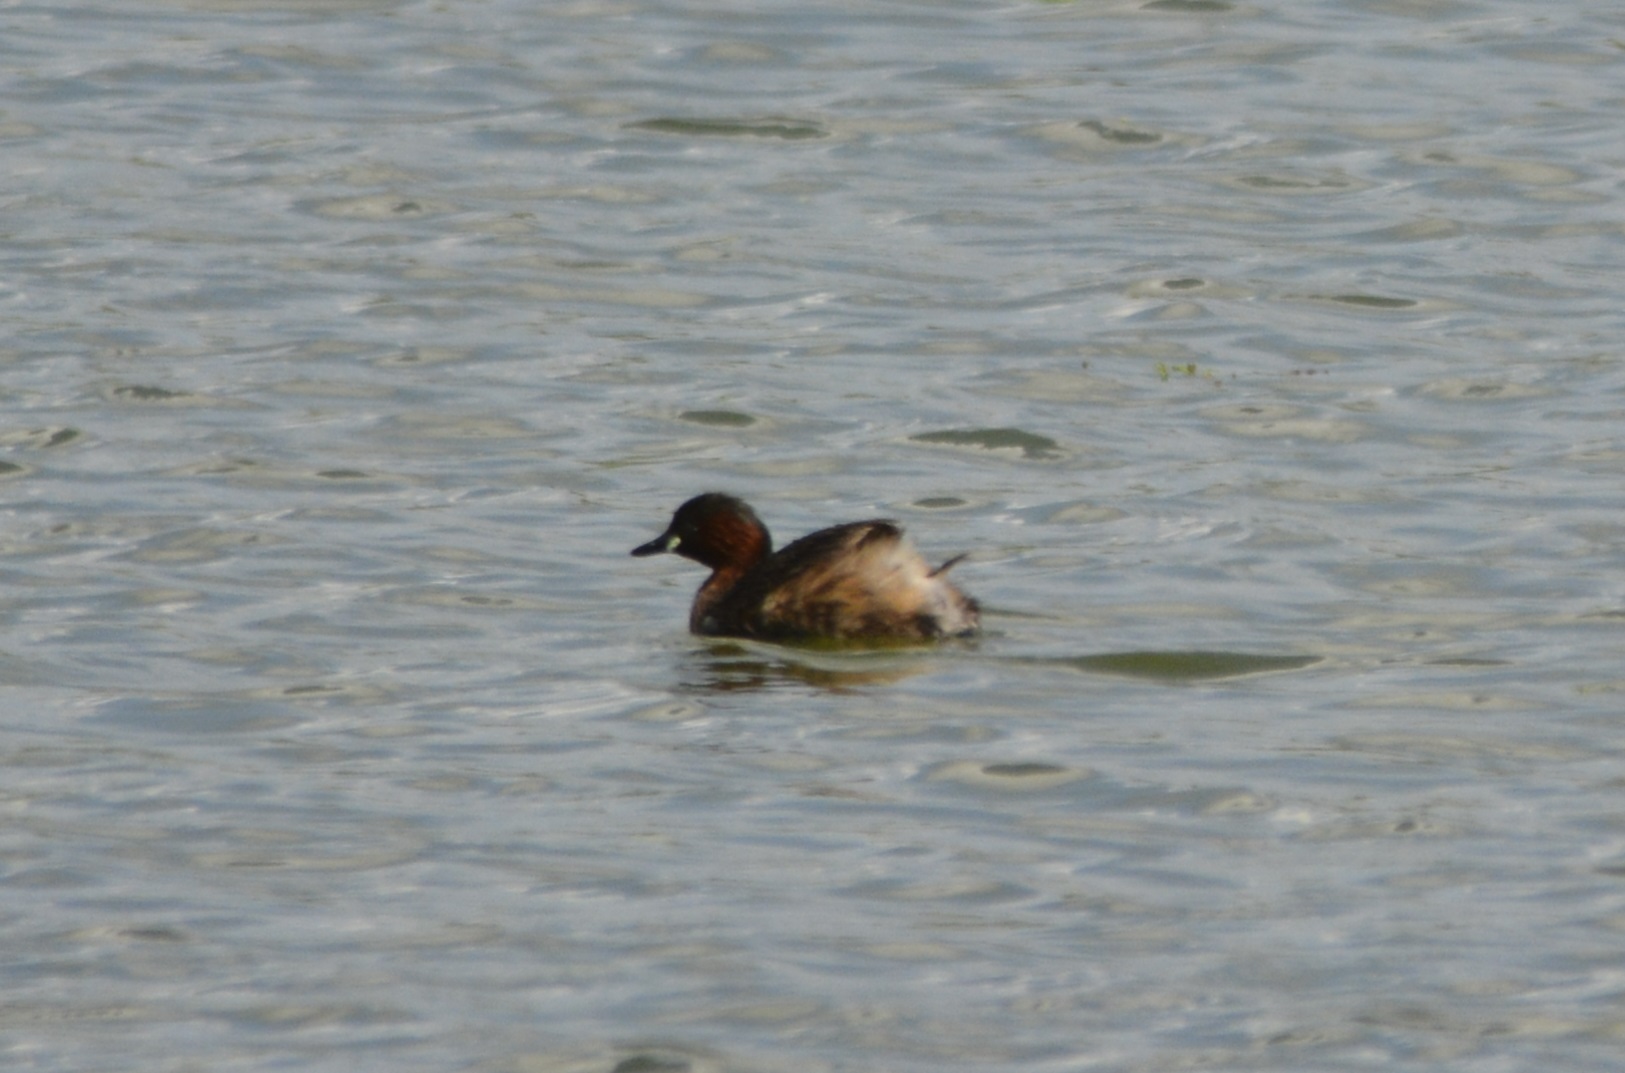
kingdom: Animalia
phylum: Chordata
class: Aves
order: Podicipediformes
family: Podicipedidae
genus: Tachybaptus
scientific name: Tachybaptus ruficollis
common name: Little grebe
